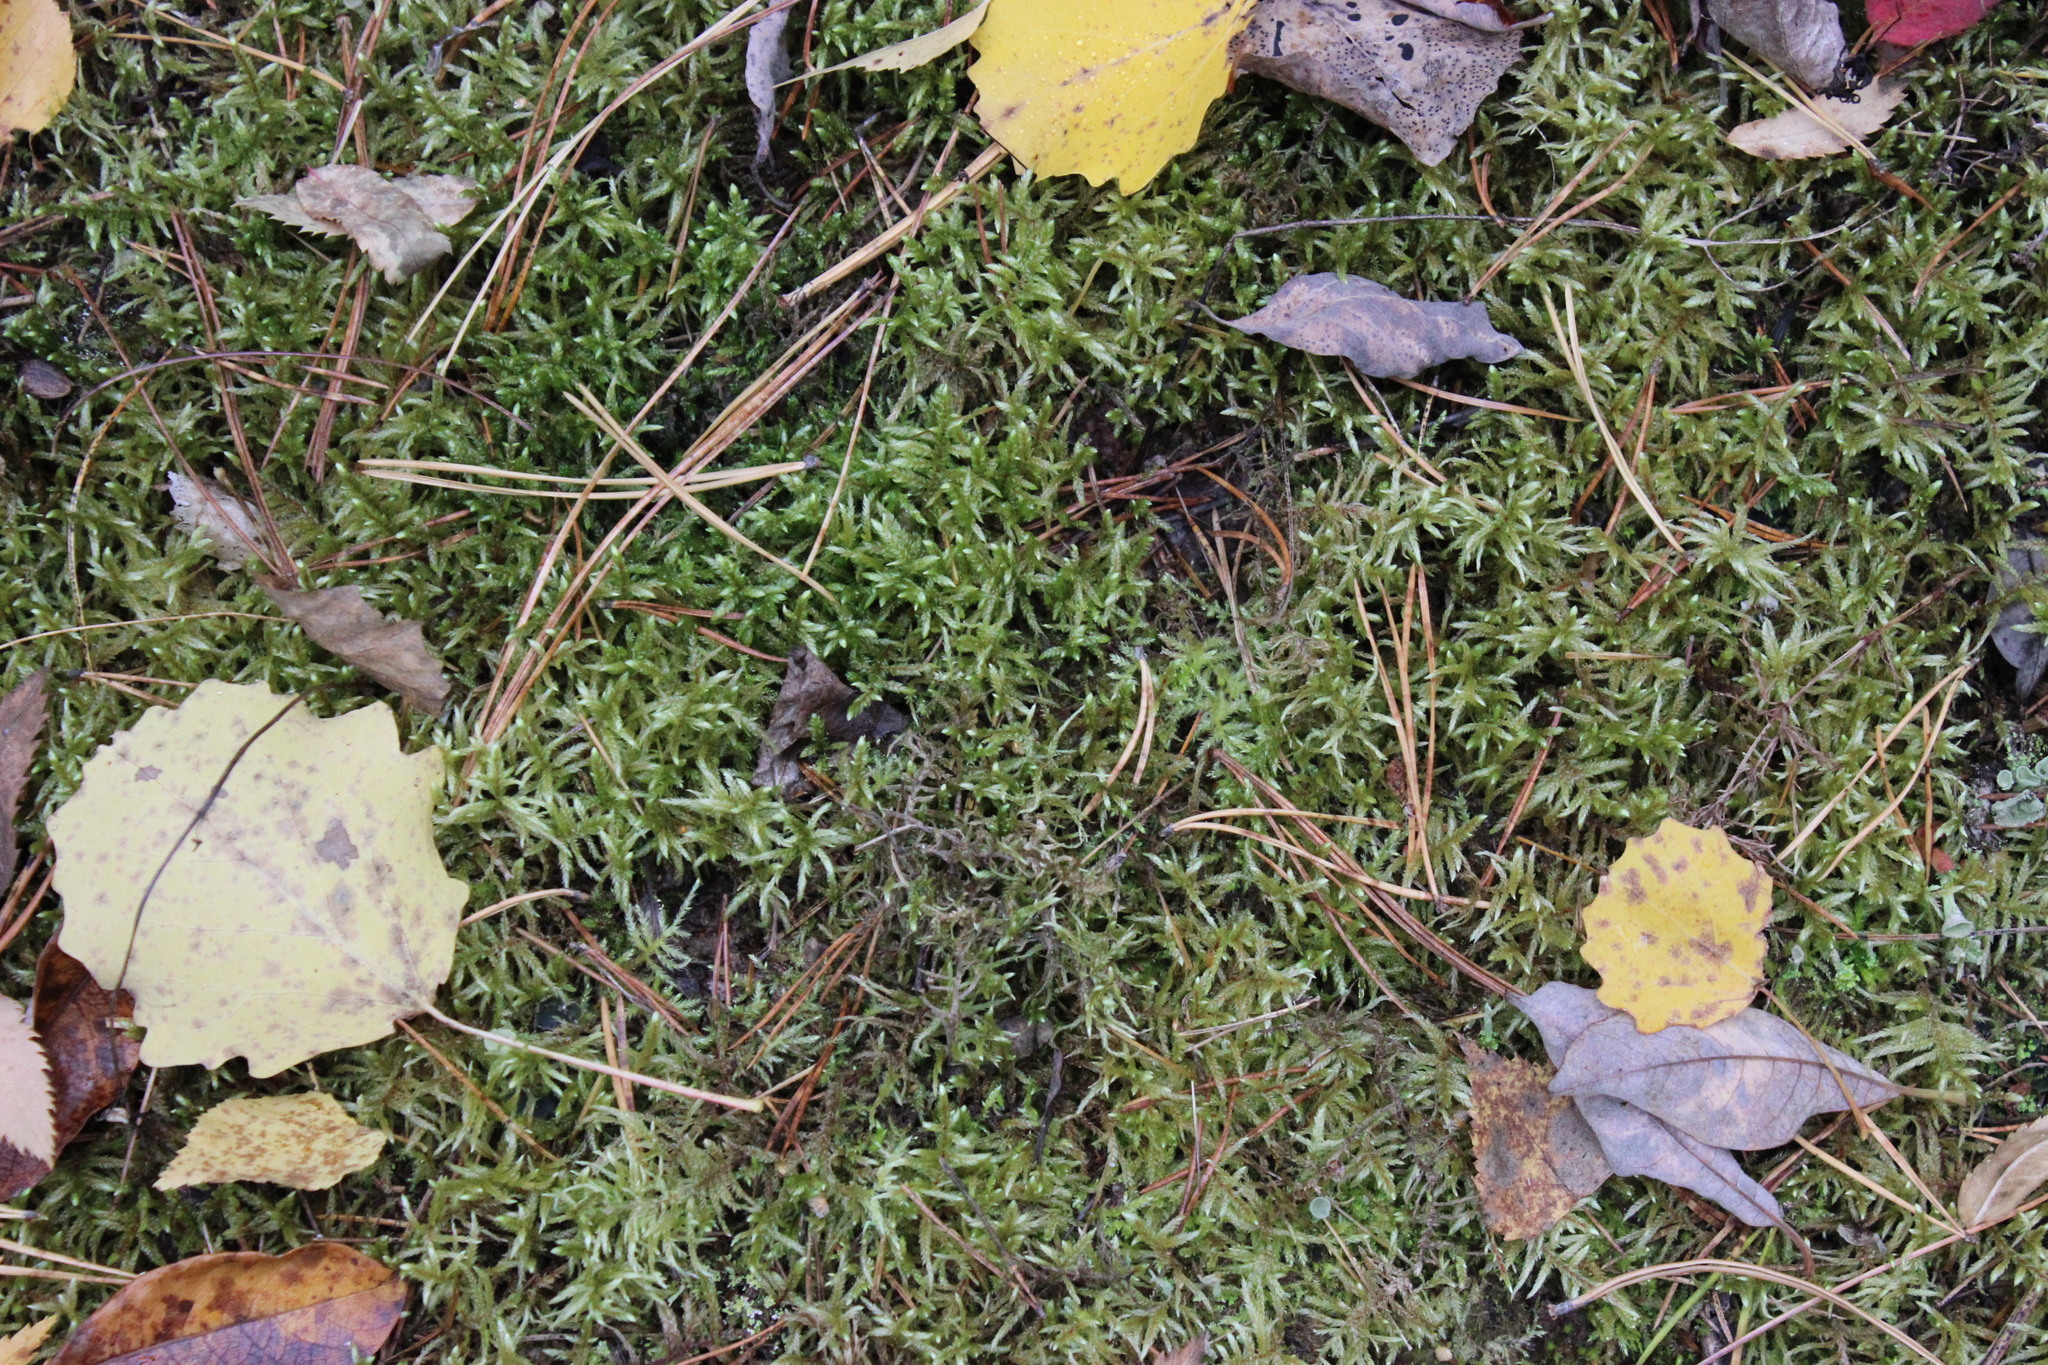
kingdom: Plantae
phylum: Bryophyta
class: Bryopsida
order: Hypnales
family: Hylocomiaceae
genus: Pleurozium
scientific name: Pleurozium schreberi
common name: Red-stemmed feather moss
